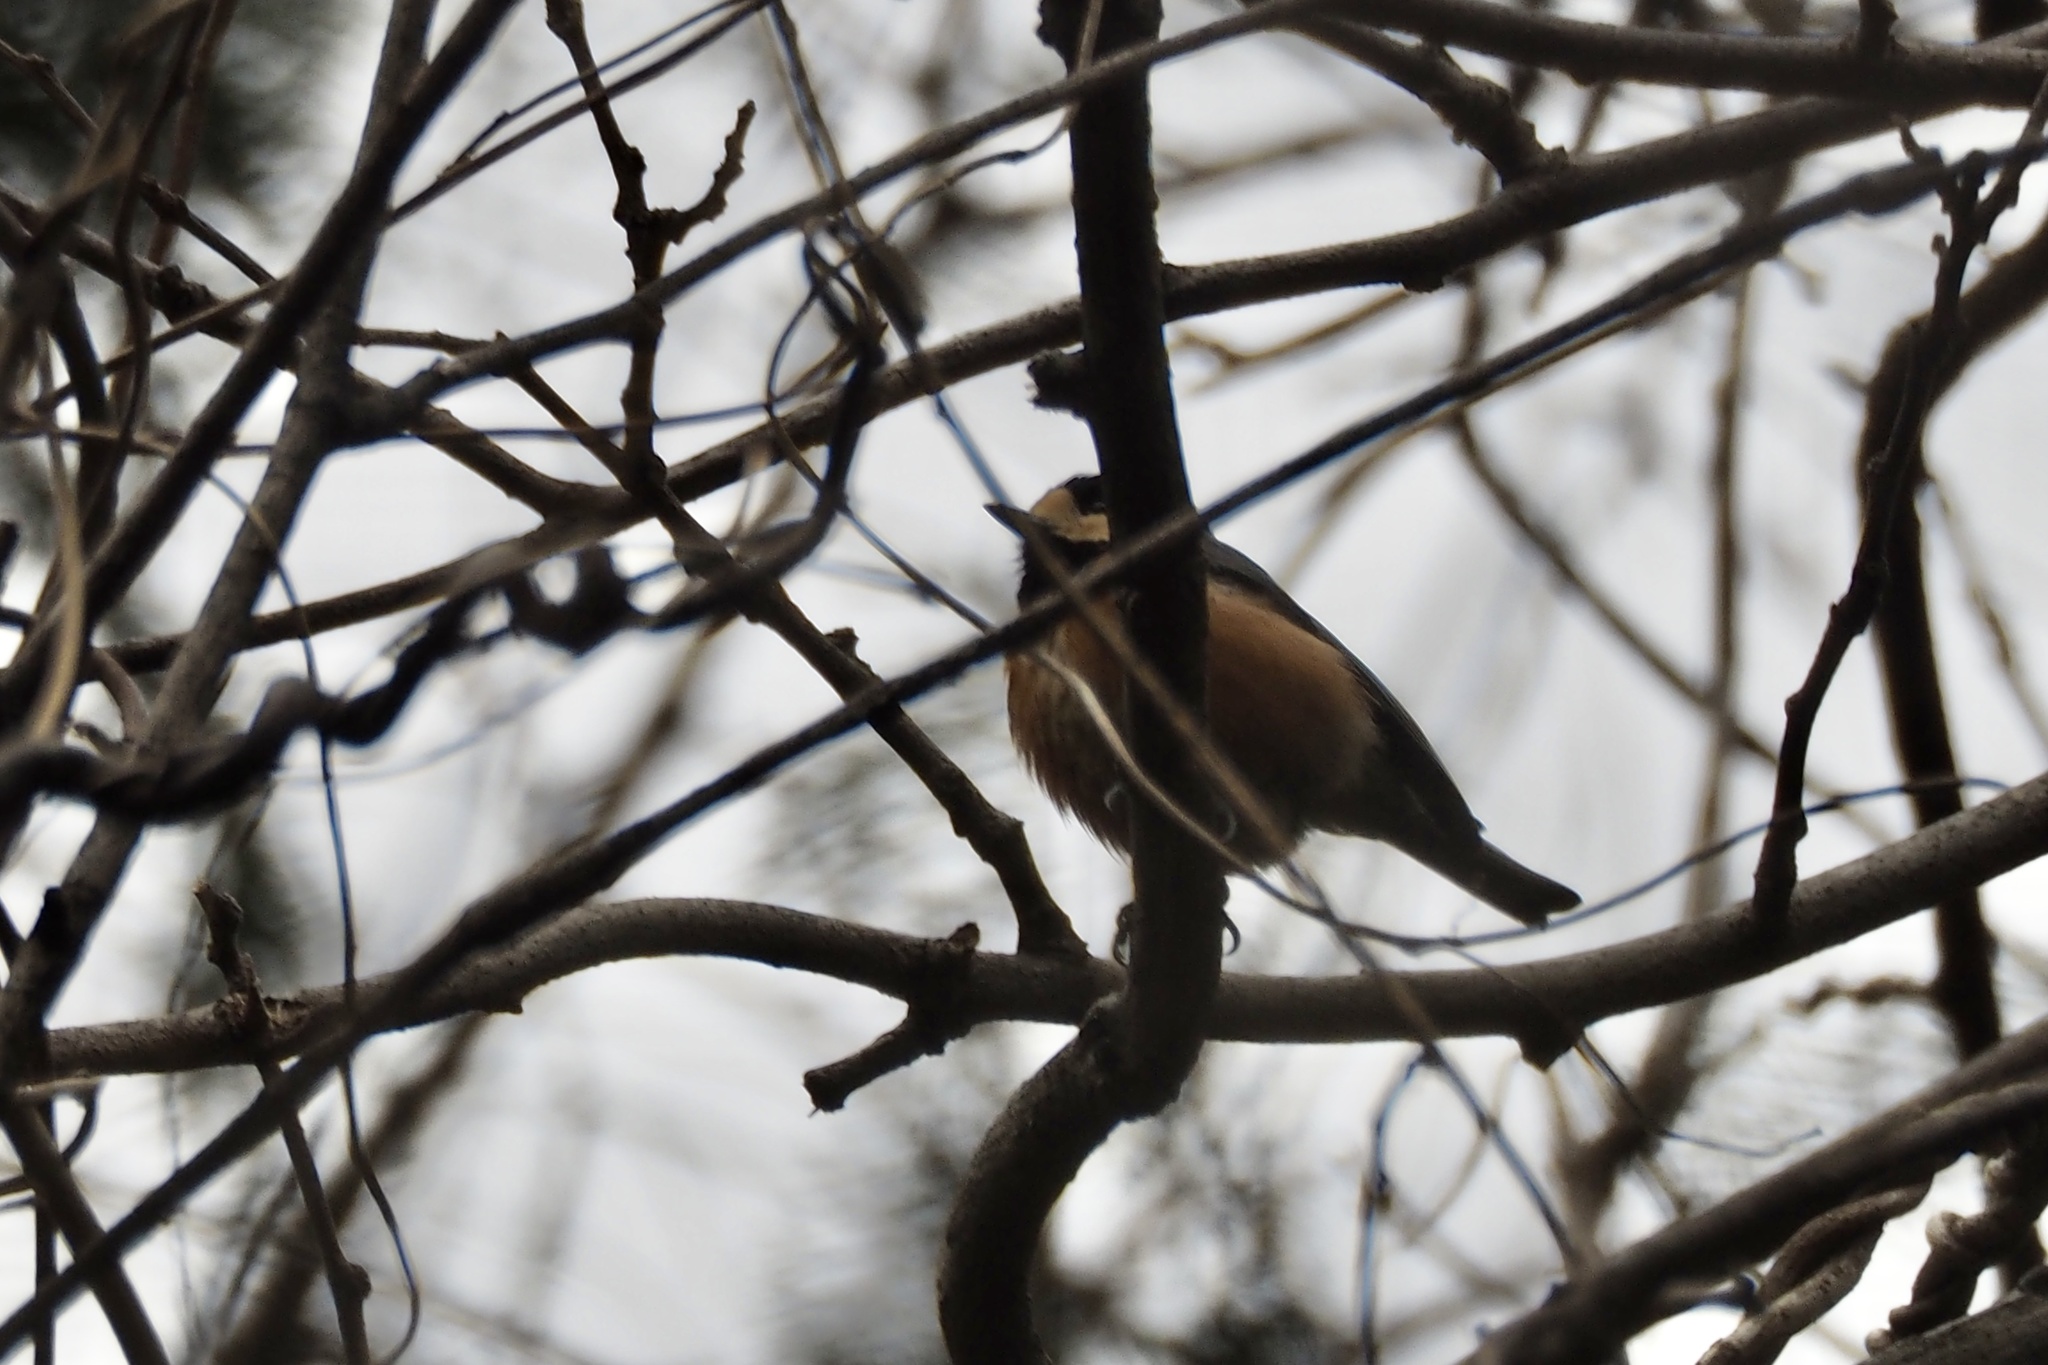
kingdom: Animalia
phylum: Chordata
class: Aves
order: Passeriformes
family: Paridae
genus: Poecile
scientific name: Poecile varius
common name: Varied tit
